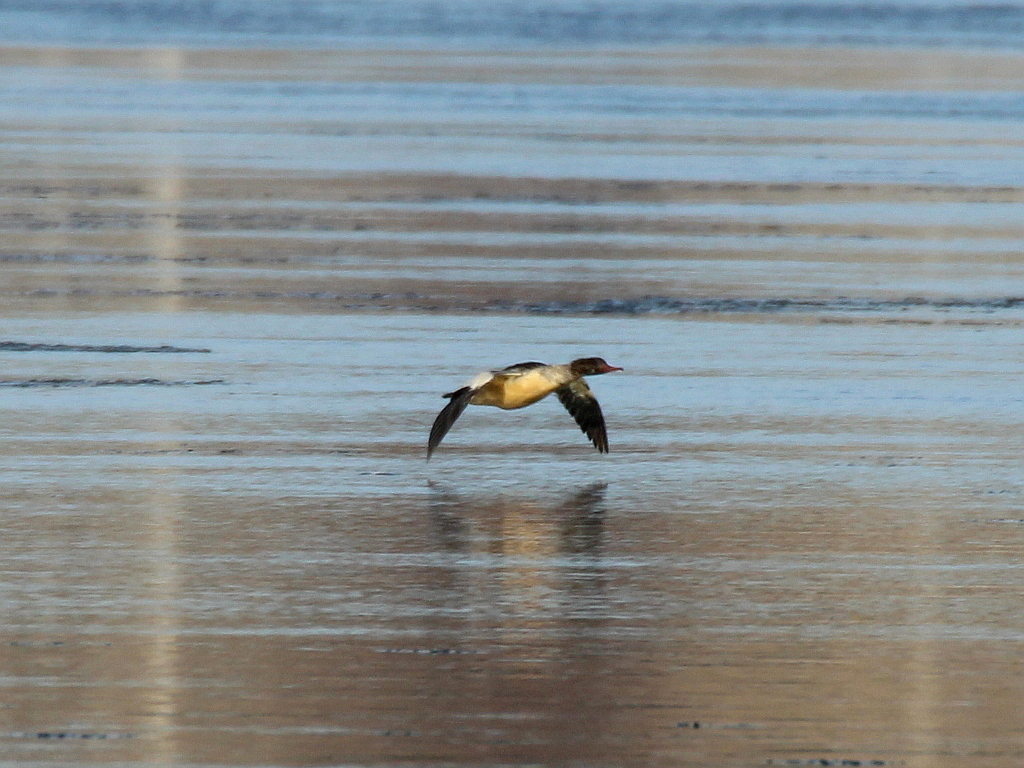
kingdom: Animalia
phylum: Chordata
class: Aves
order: Anseriformes
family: Anatidae
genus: Mergus
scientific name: Mergus merganser
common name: Common merganser
